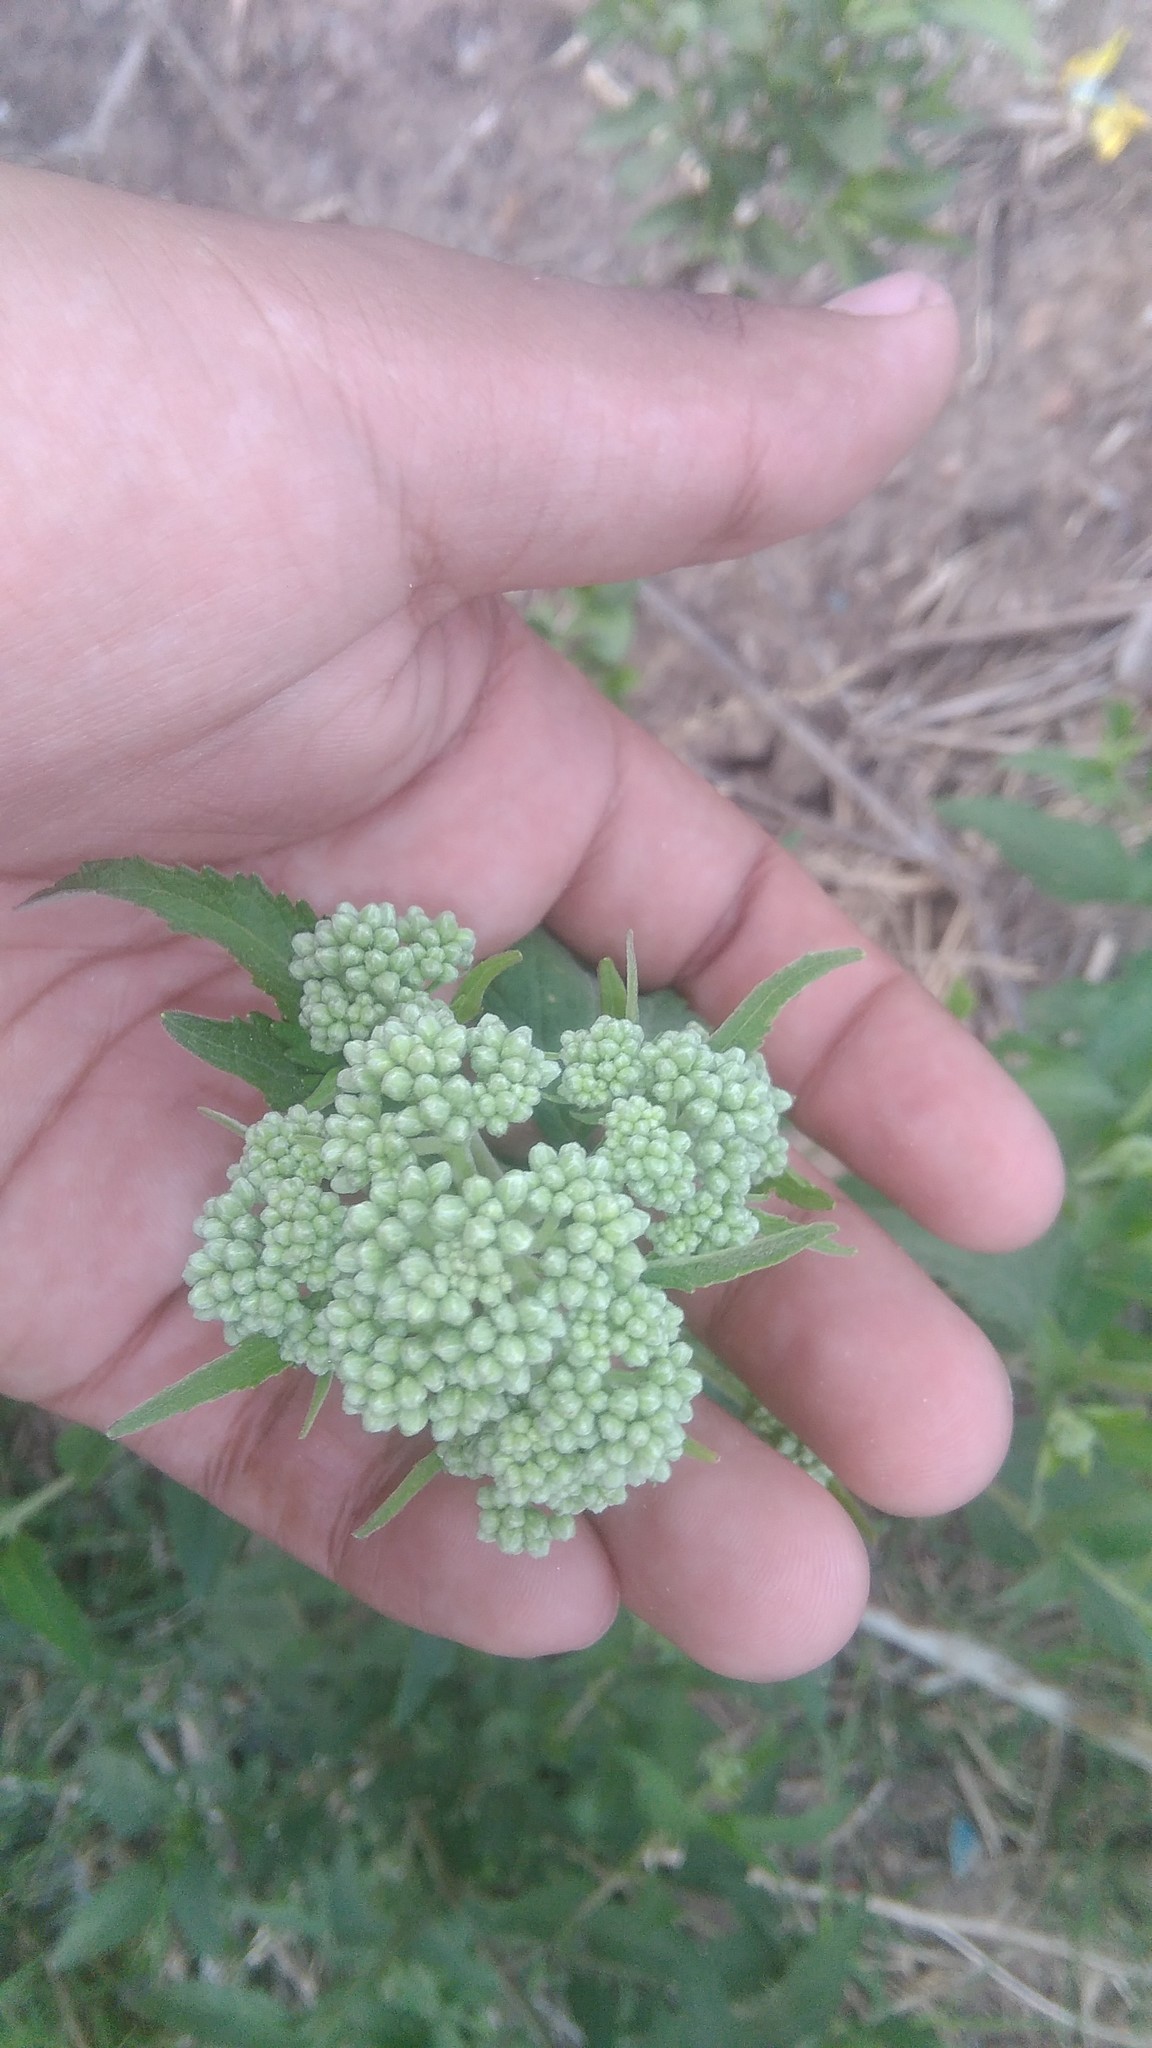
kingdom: Plantae
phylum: Tracheophyta
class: Magnoliopsida
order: Asterales
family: Asteraceae
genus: Austroeupatorium
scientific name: Austroeupatorium inulifolium
